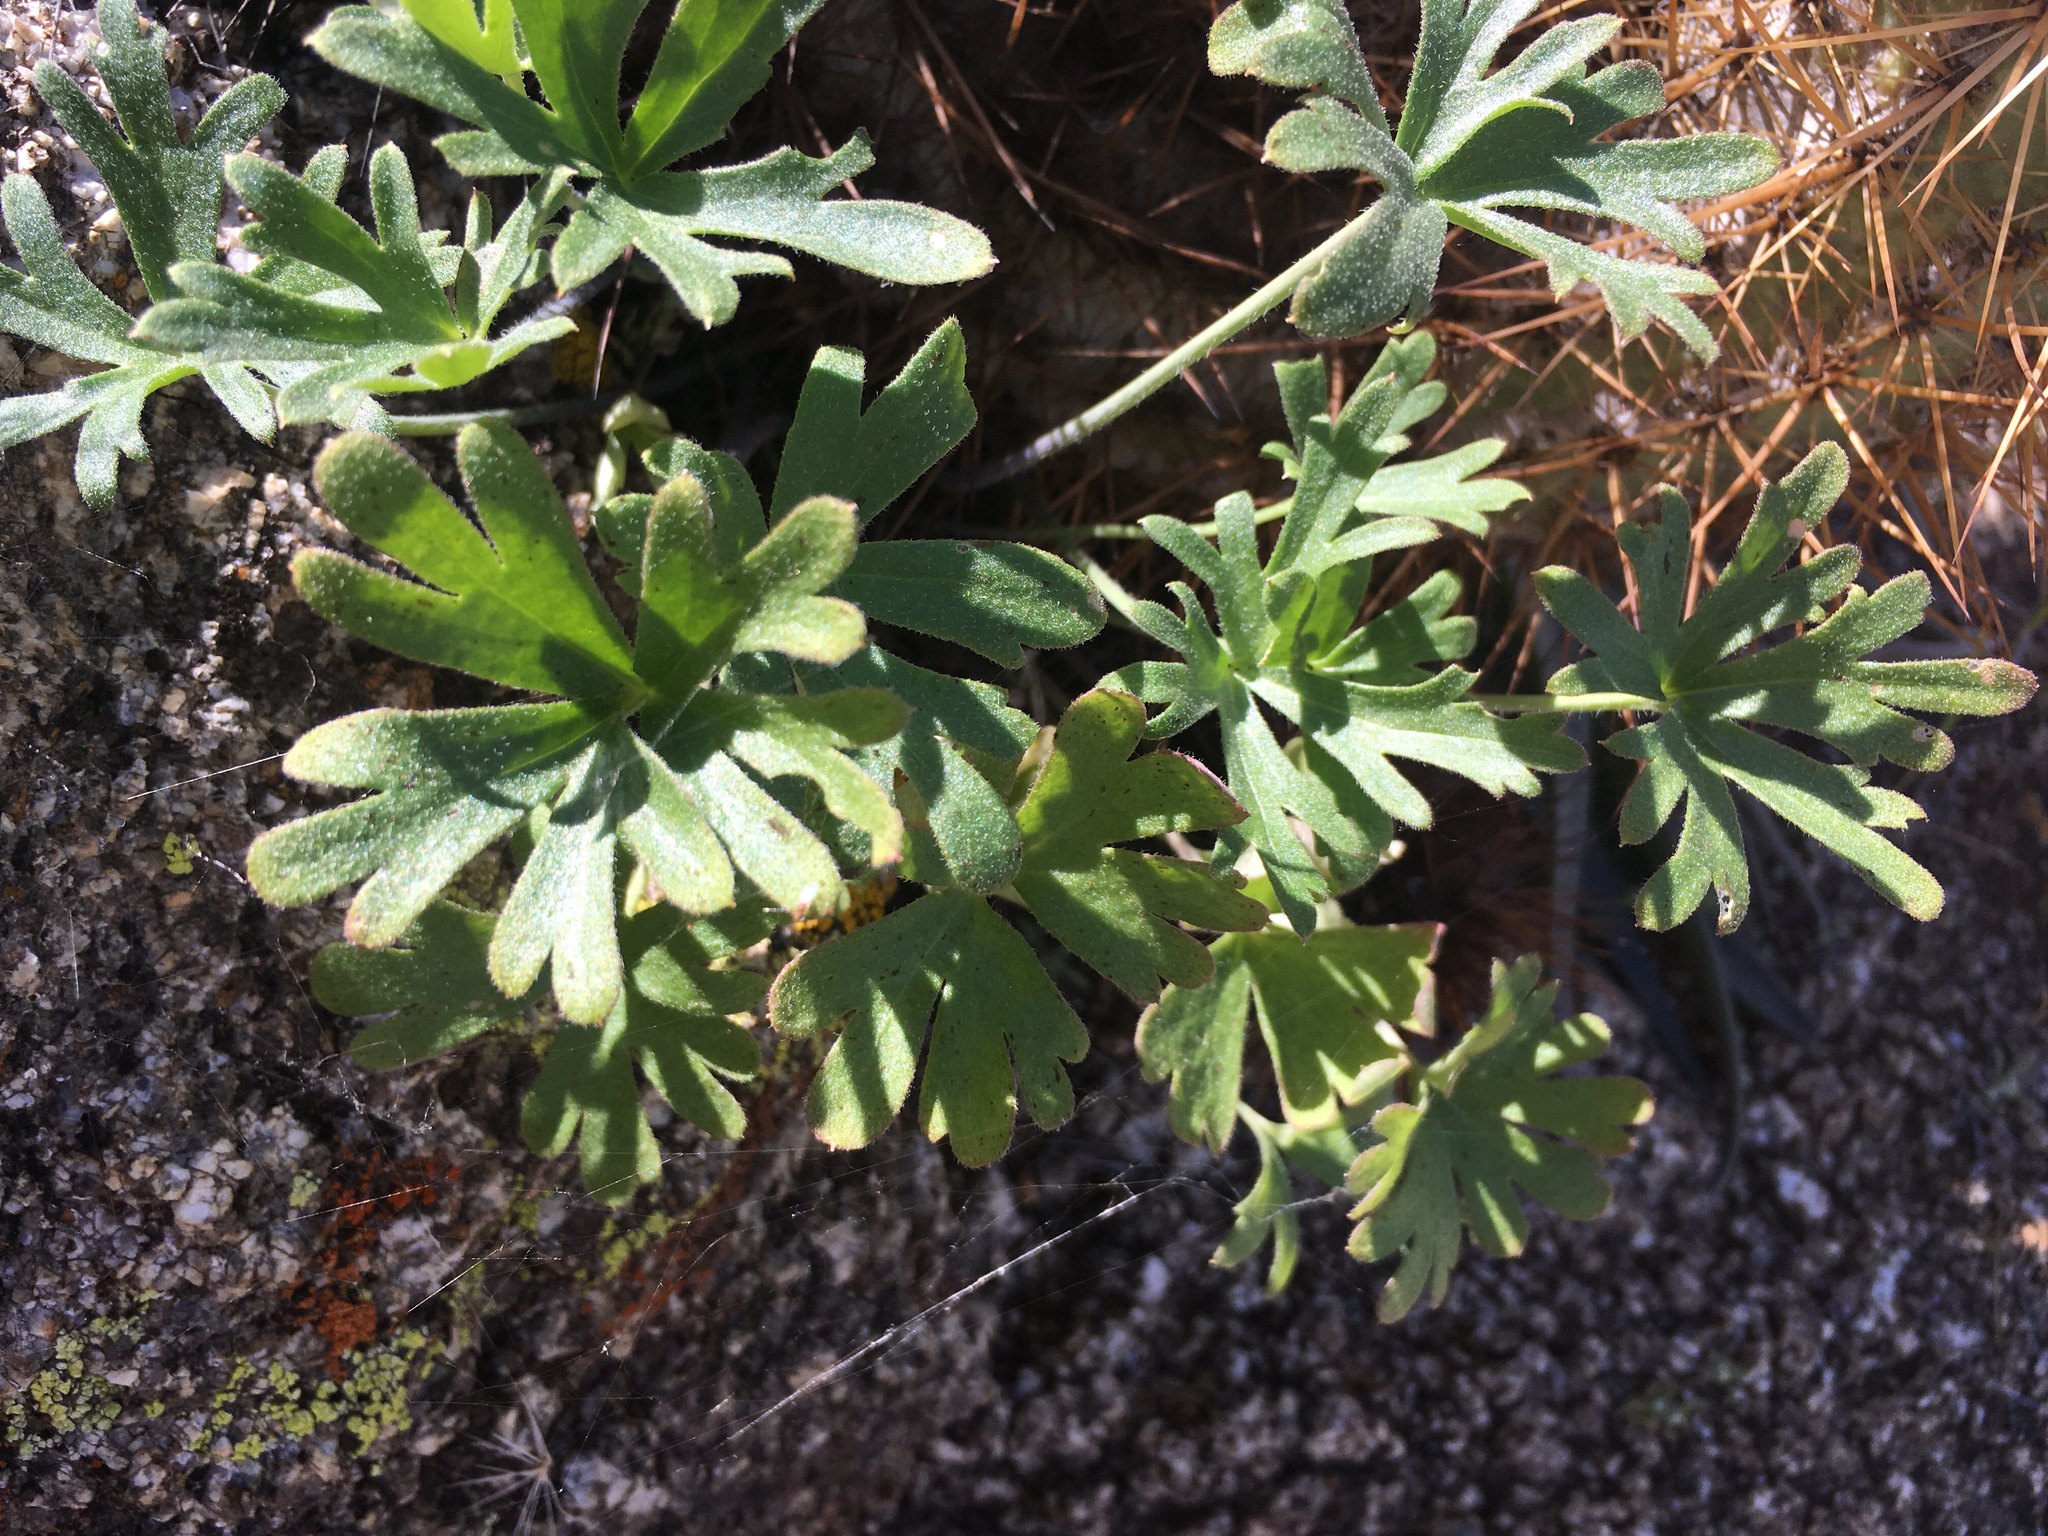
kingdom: Plantae
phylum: Tracheophyta
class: Magnoliopsida
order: Ranunculales
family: Ranunculaceae
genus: Delphinium
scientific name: Delphinium parishii
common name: Apache larkspur
